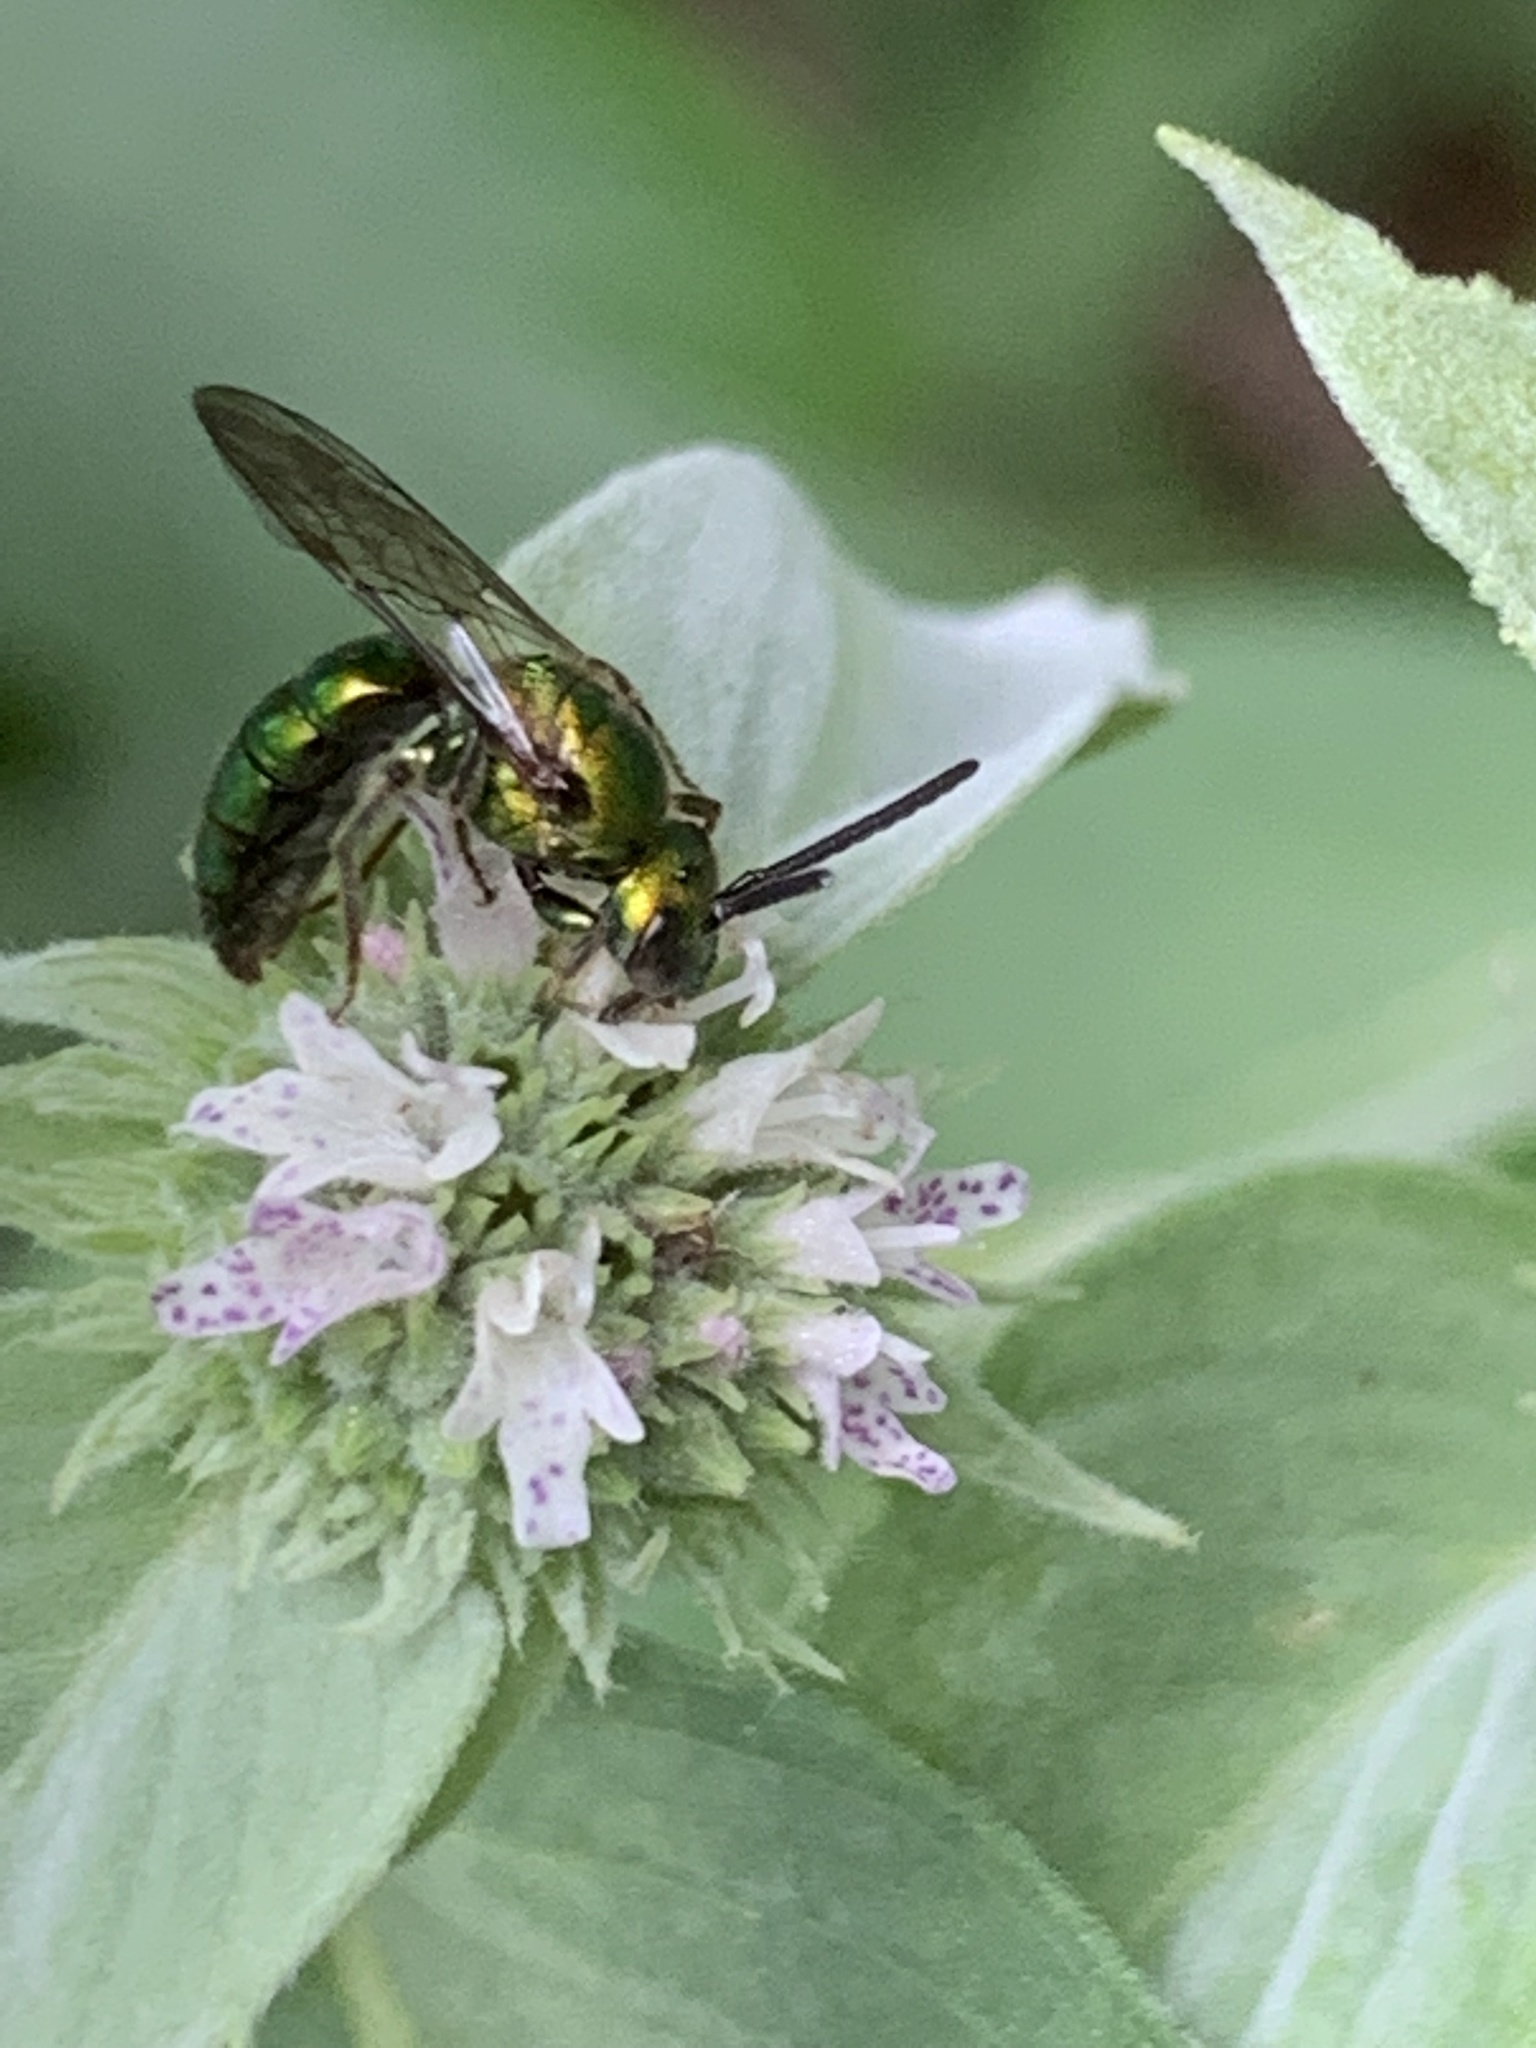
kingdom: Animalia
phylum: Arthropoda
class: Insecta
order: Hymenoptera
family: Halictidae
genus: Augochlora
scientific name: Augochlora pura
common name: Pure green sweat bee
